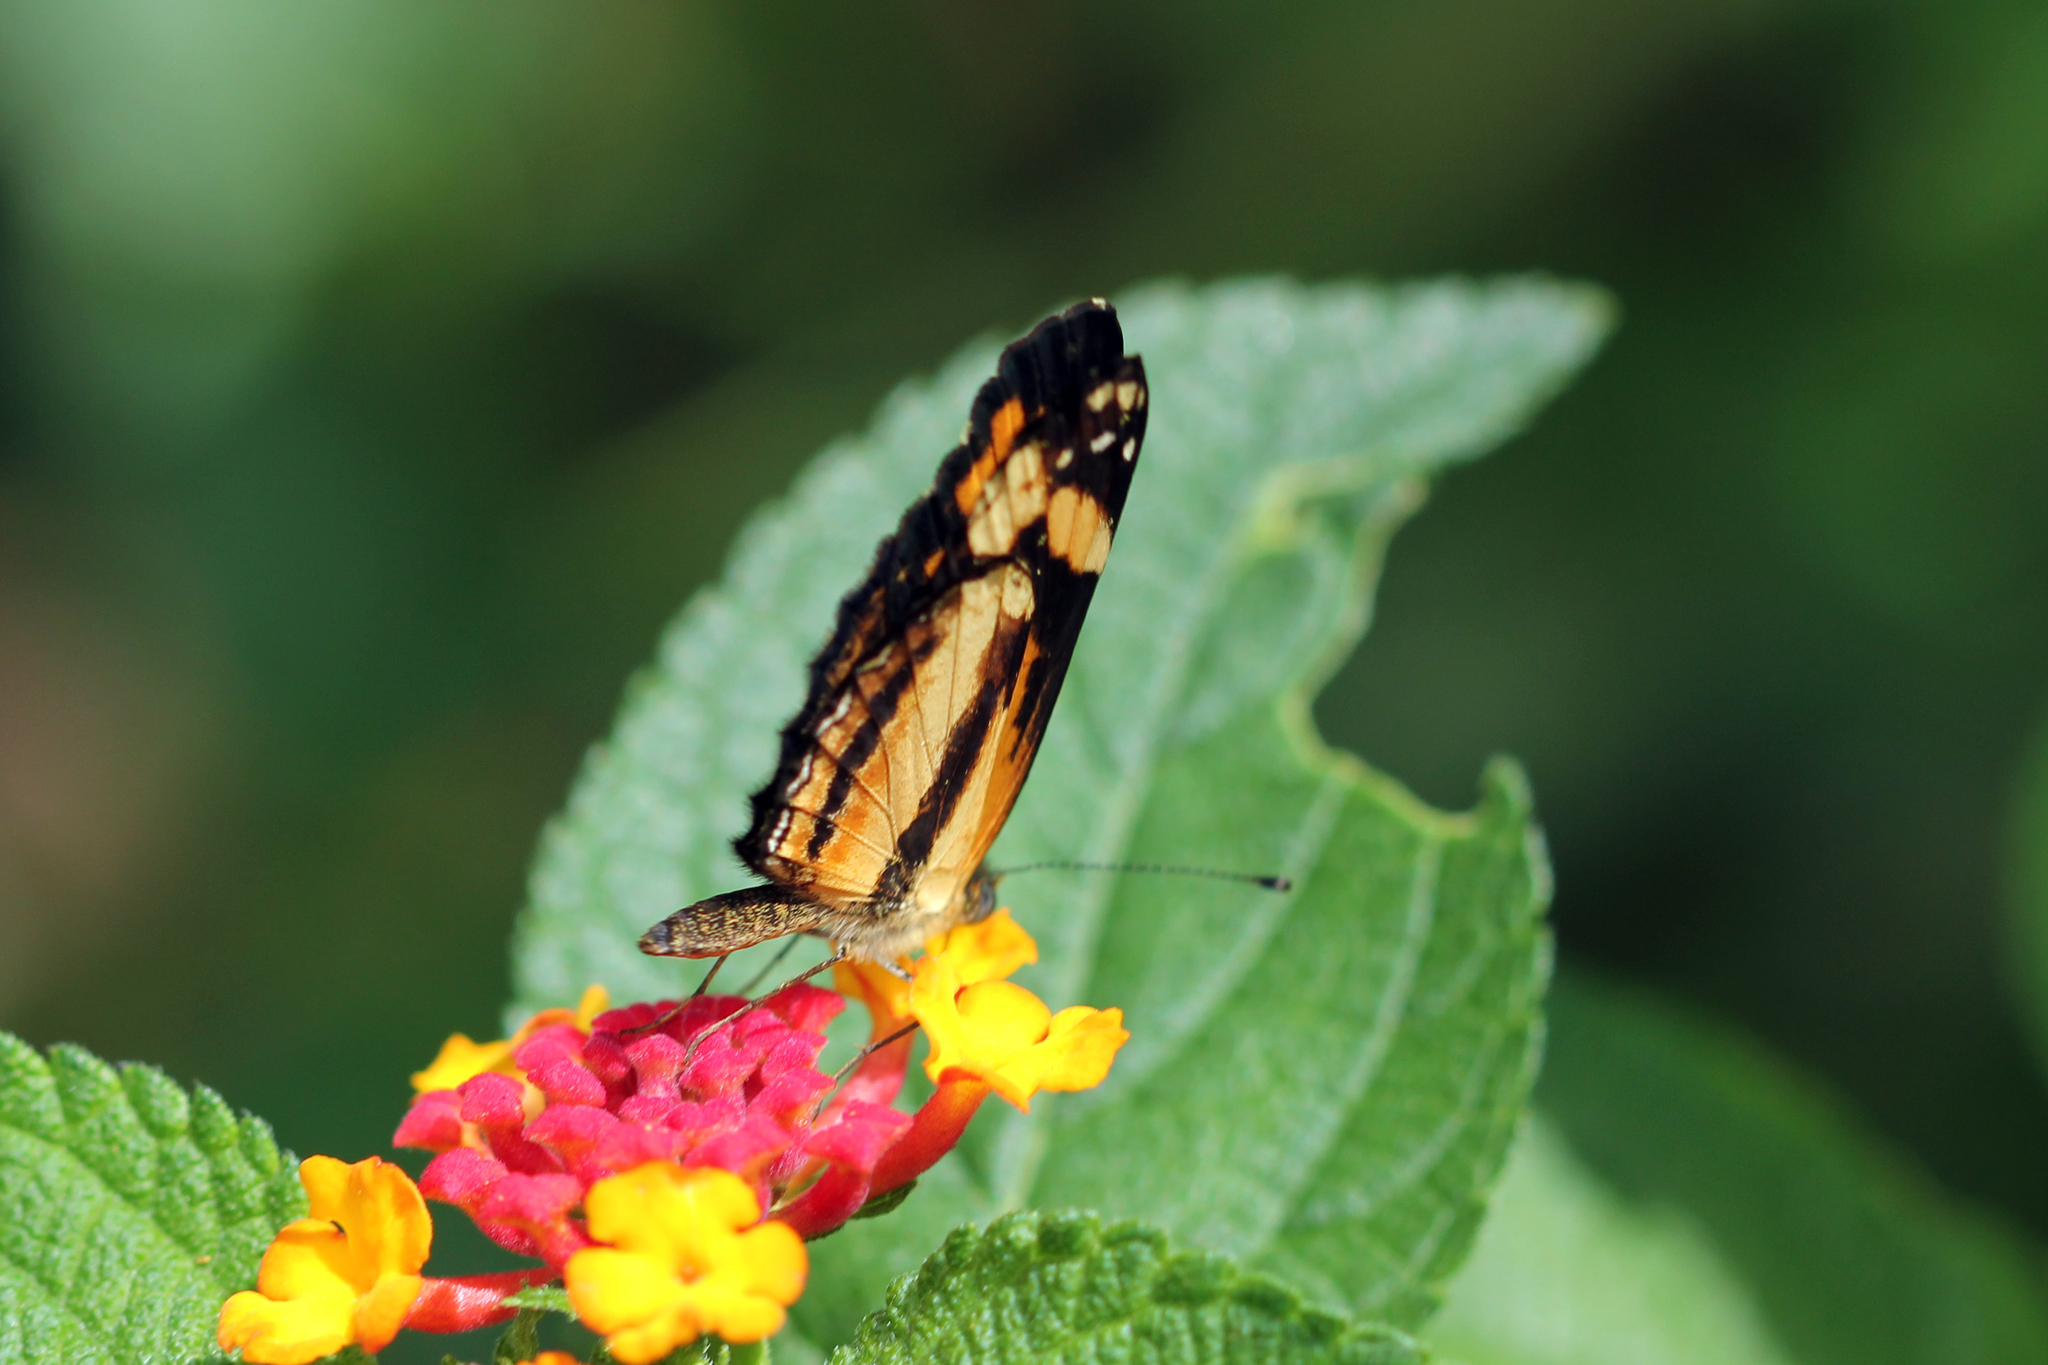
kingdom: Animalia
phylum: Arthropoda
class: Insecta
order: Lepidoptera
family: Nymphalidae
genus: Castilia
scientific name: Castilia eranites
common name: Smudged crescent
